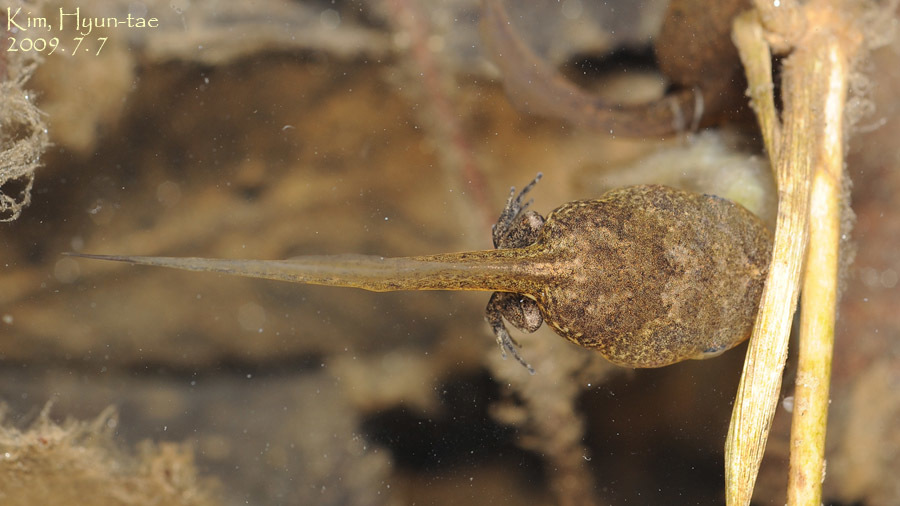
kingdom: Animalia
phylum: Chordata
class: Amphibia
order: Anura
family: Microhylidae
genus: Kaloula
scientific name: Kaloula borealis
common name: Boreal digging frog
